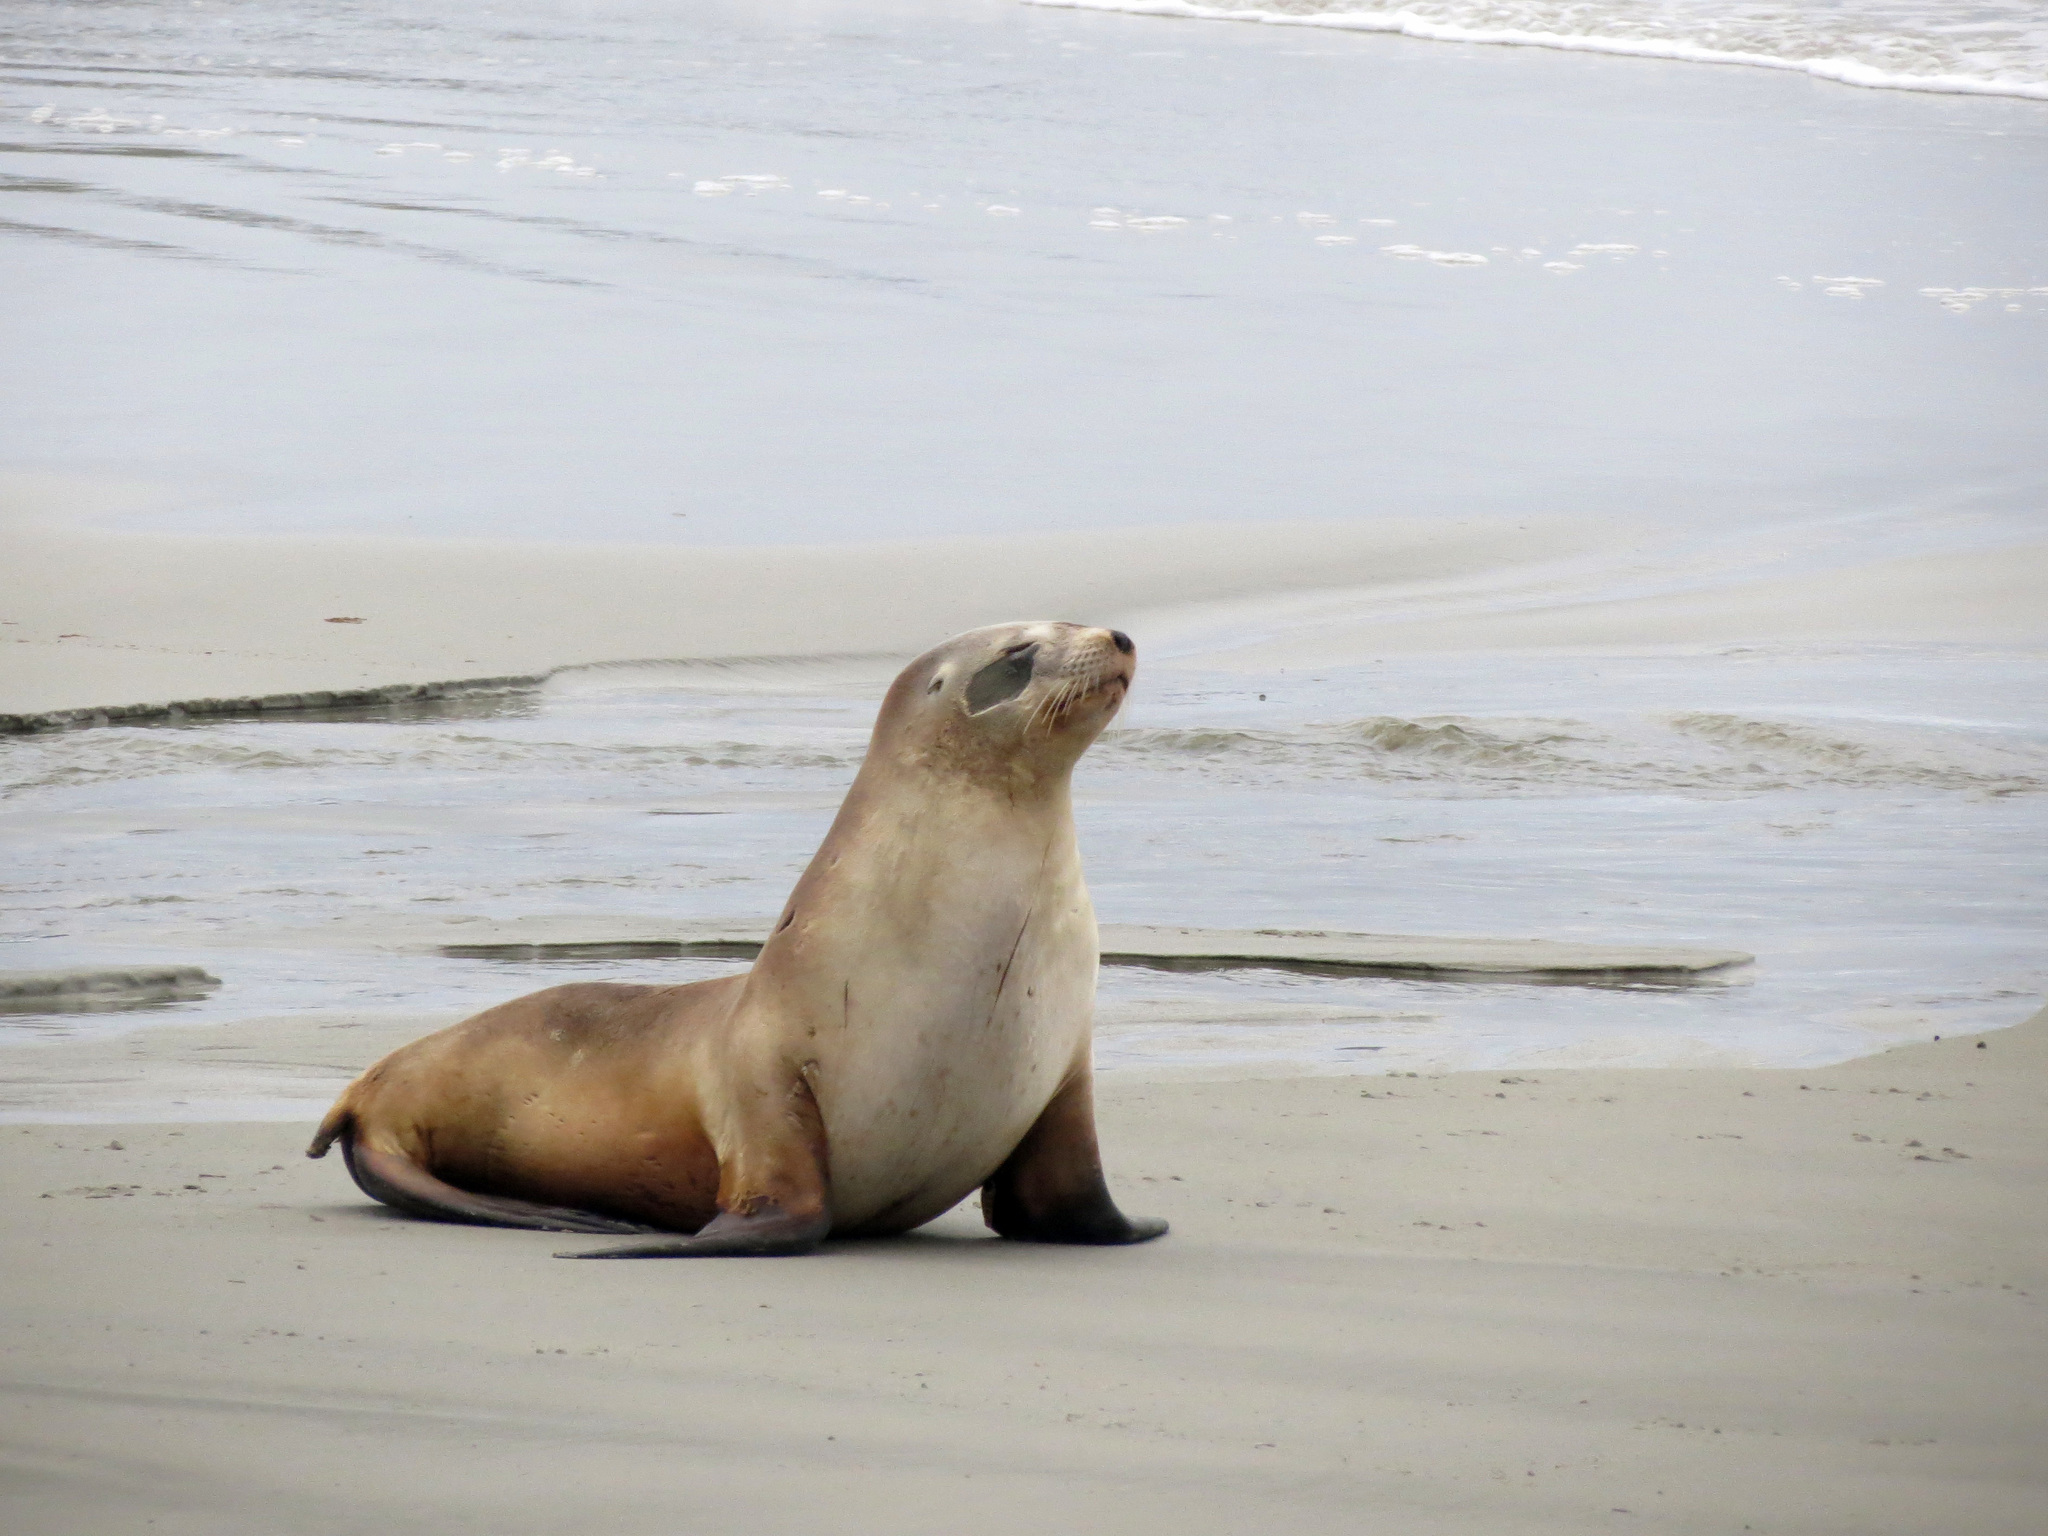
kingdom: Animalia
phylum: Chordata
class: Mammalia
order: Carnivora
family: Otariidae
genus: Phocarctos
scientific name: Phocarctos hookeri
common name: New zealand sea lion
